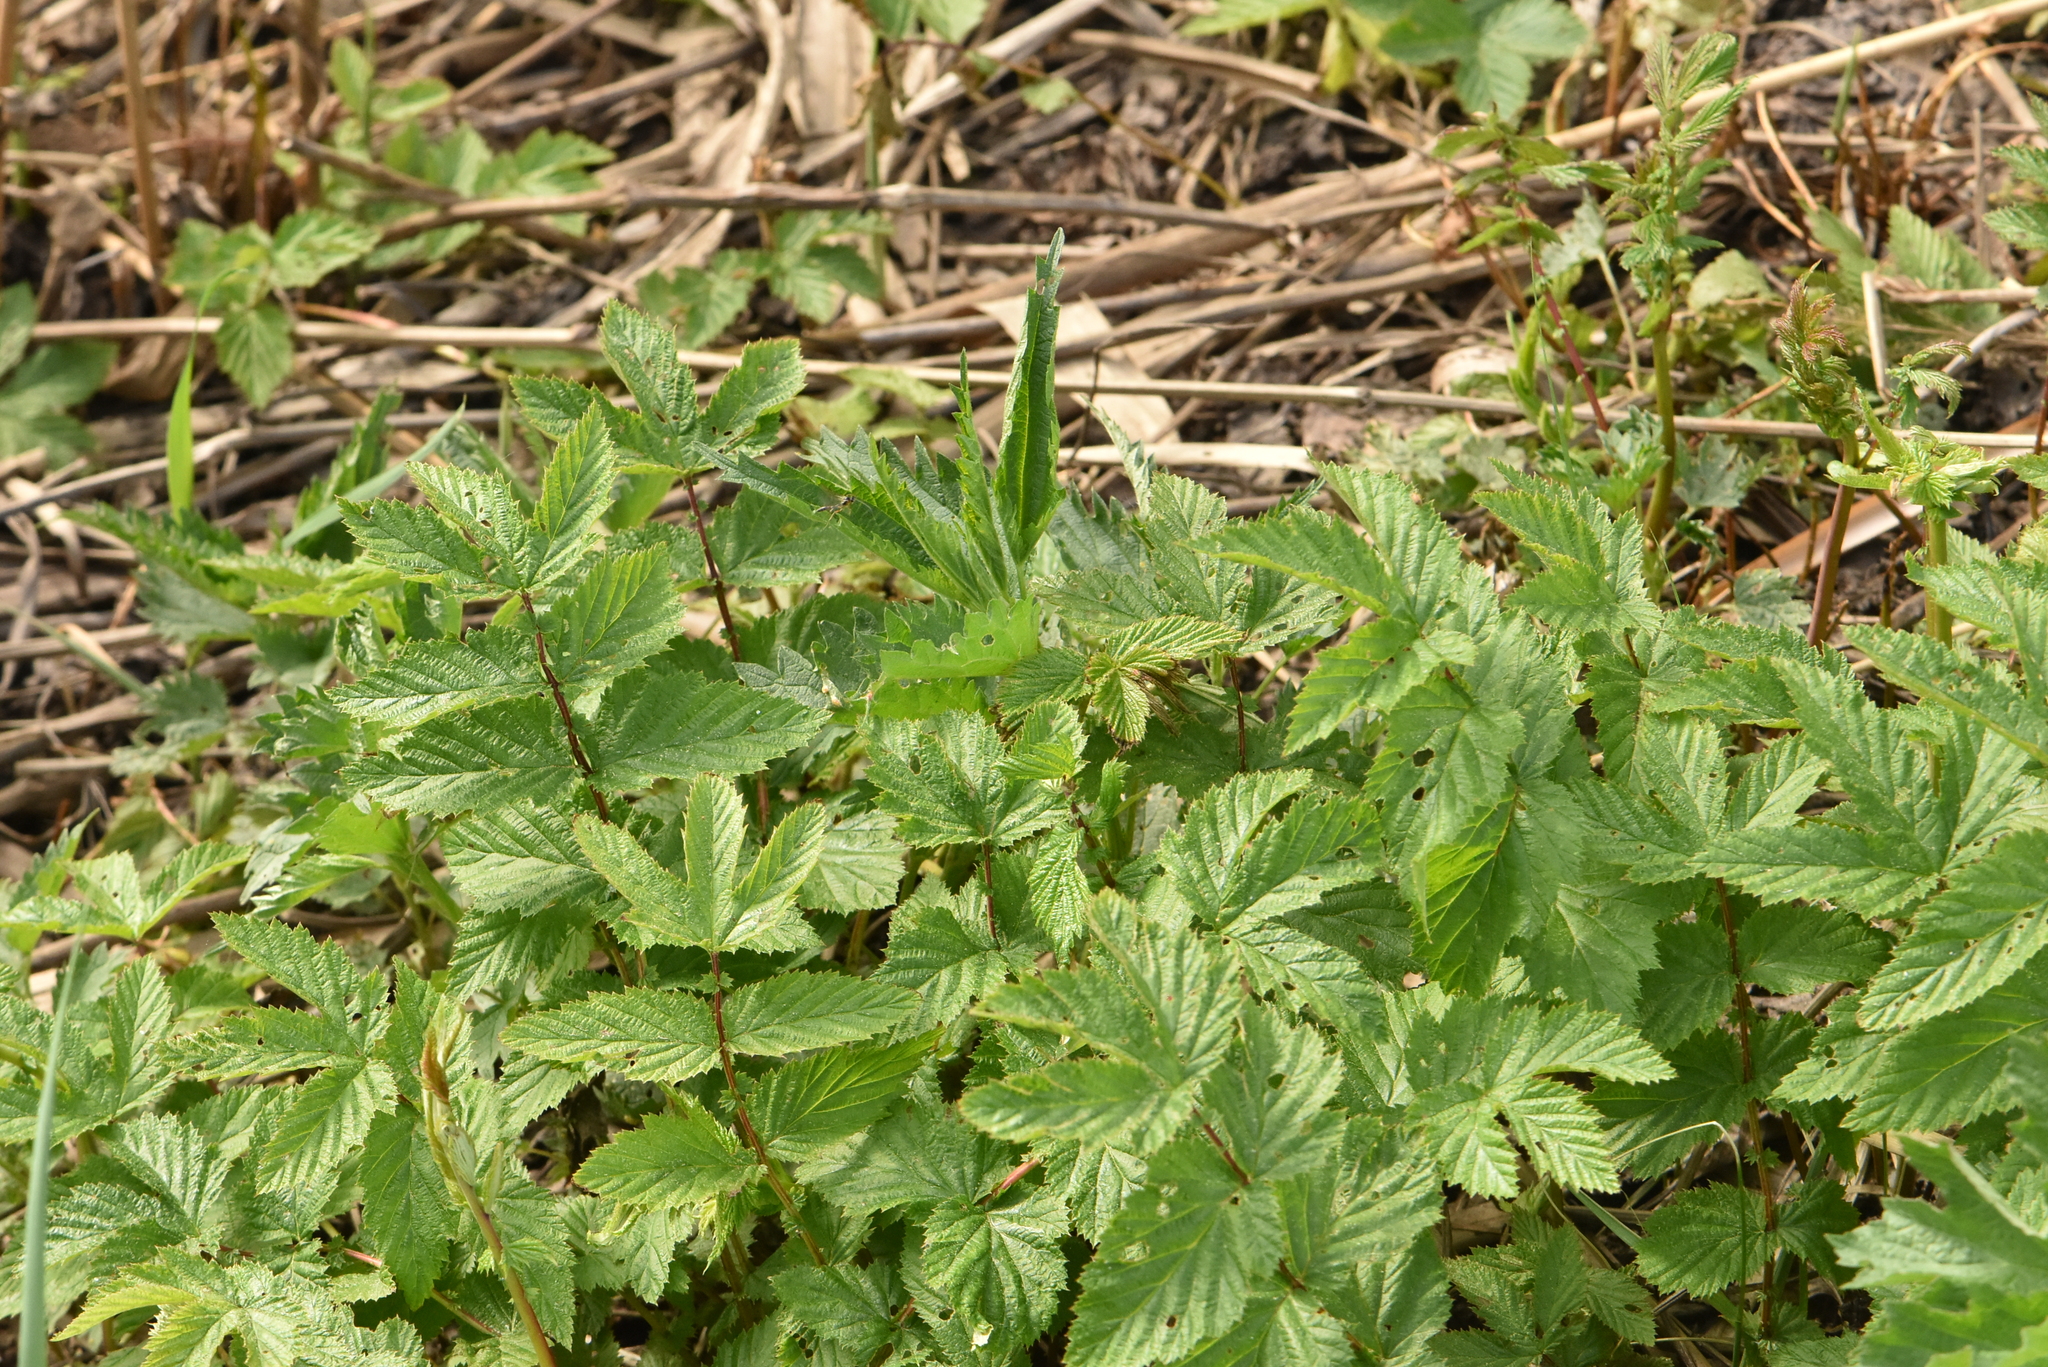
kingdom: Plantae
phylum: Tracheophyta
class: Magnoliopsida
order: Rosales
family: Rosaceae
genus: Filipendula
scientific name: Filipendula ulmaria
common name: Meadowsweet
